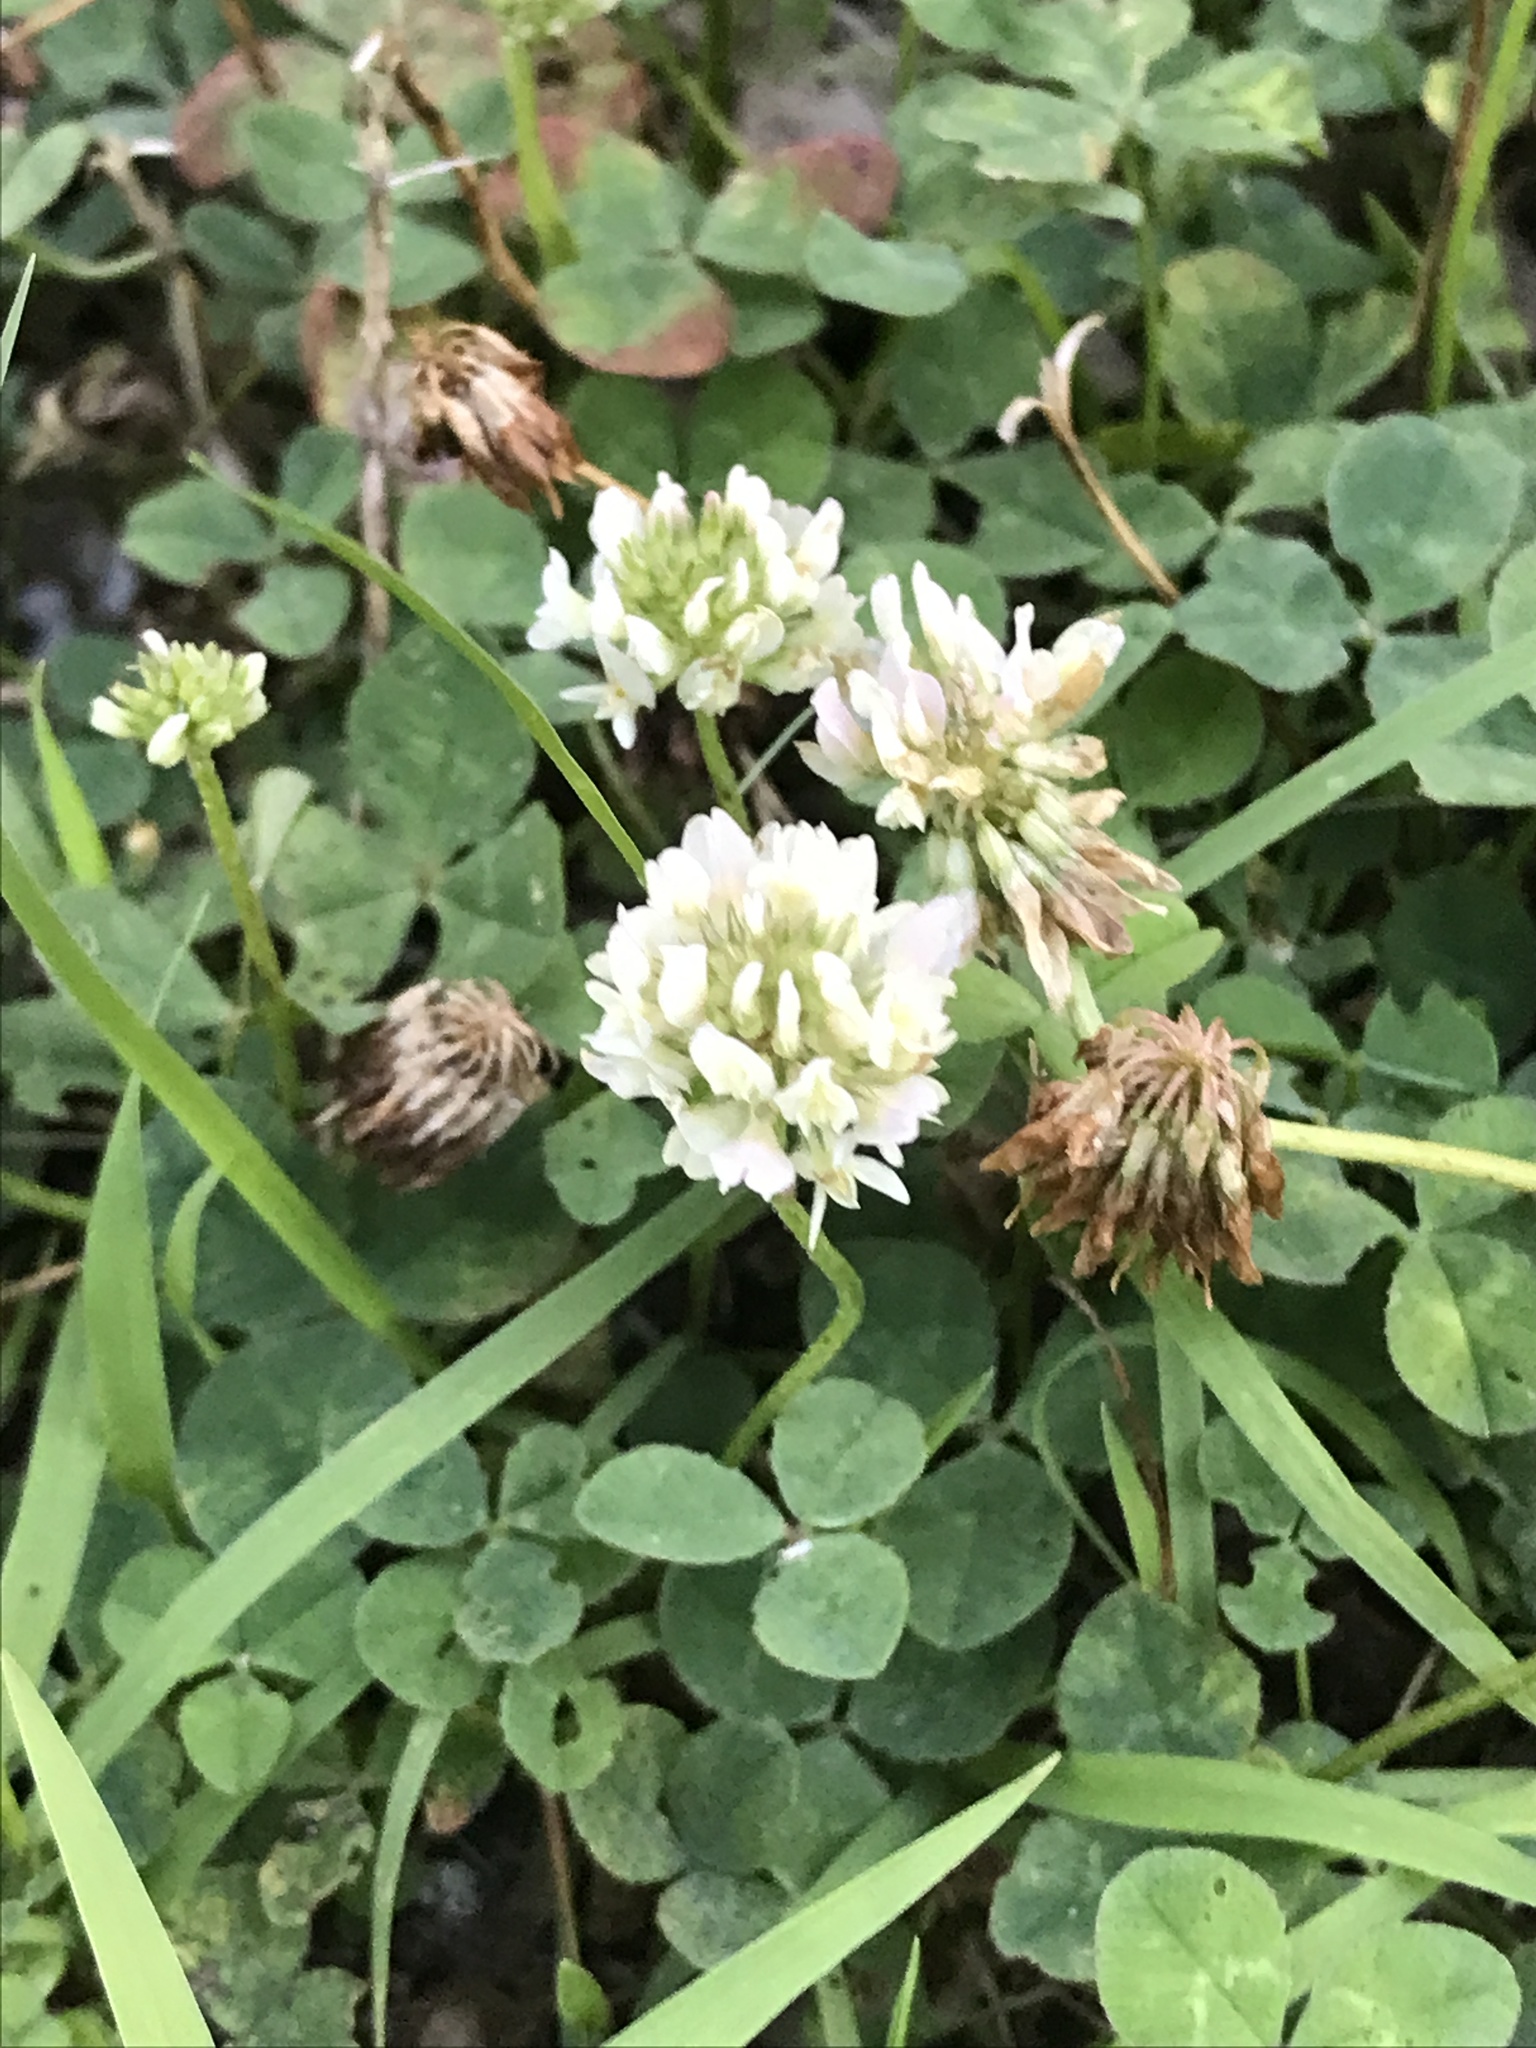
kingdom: Plantae
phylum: Tracheophyta
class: Magnoliopsida
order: Fabales
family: Fabaceae
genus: Trifolium
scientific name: Trifolium repens
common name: White clover
